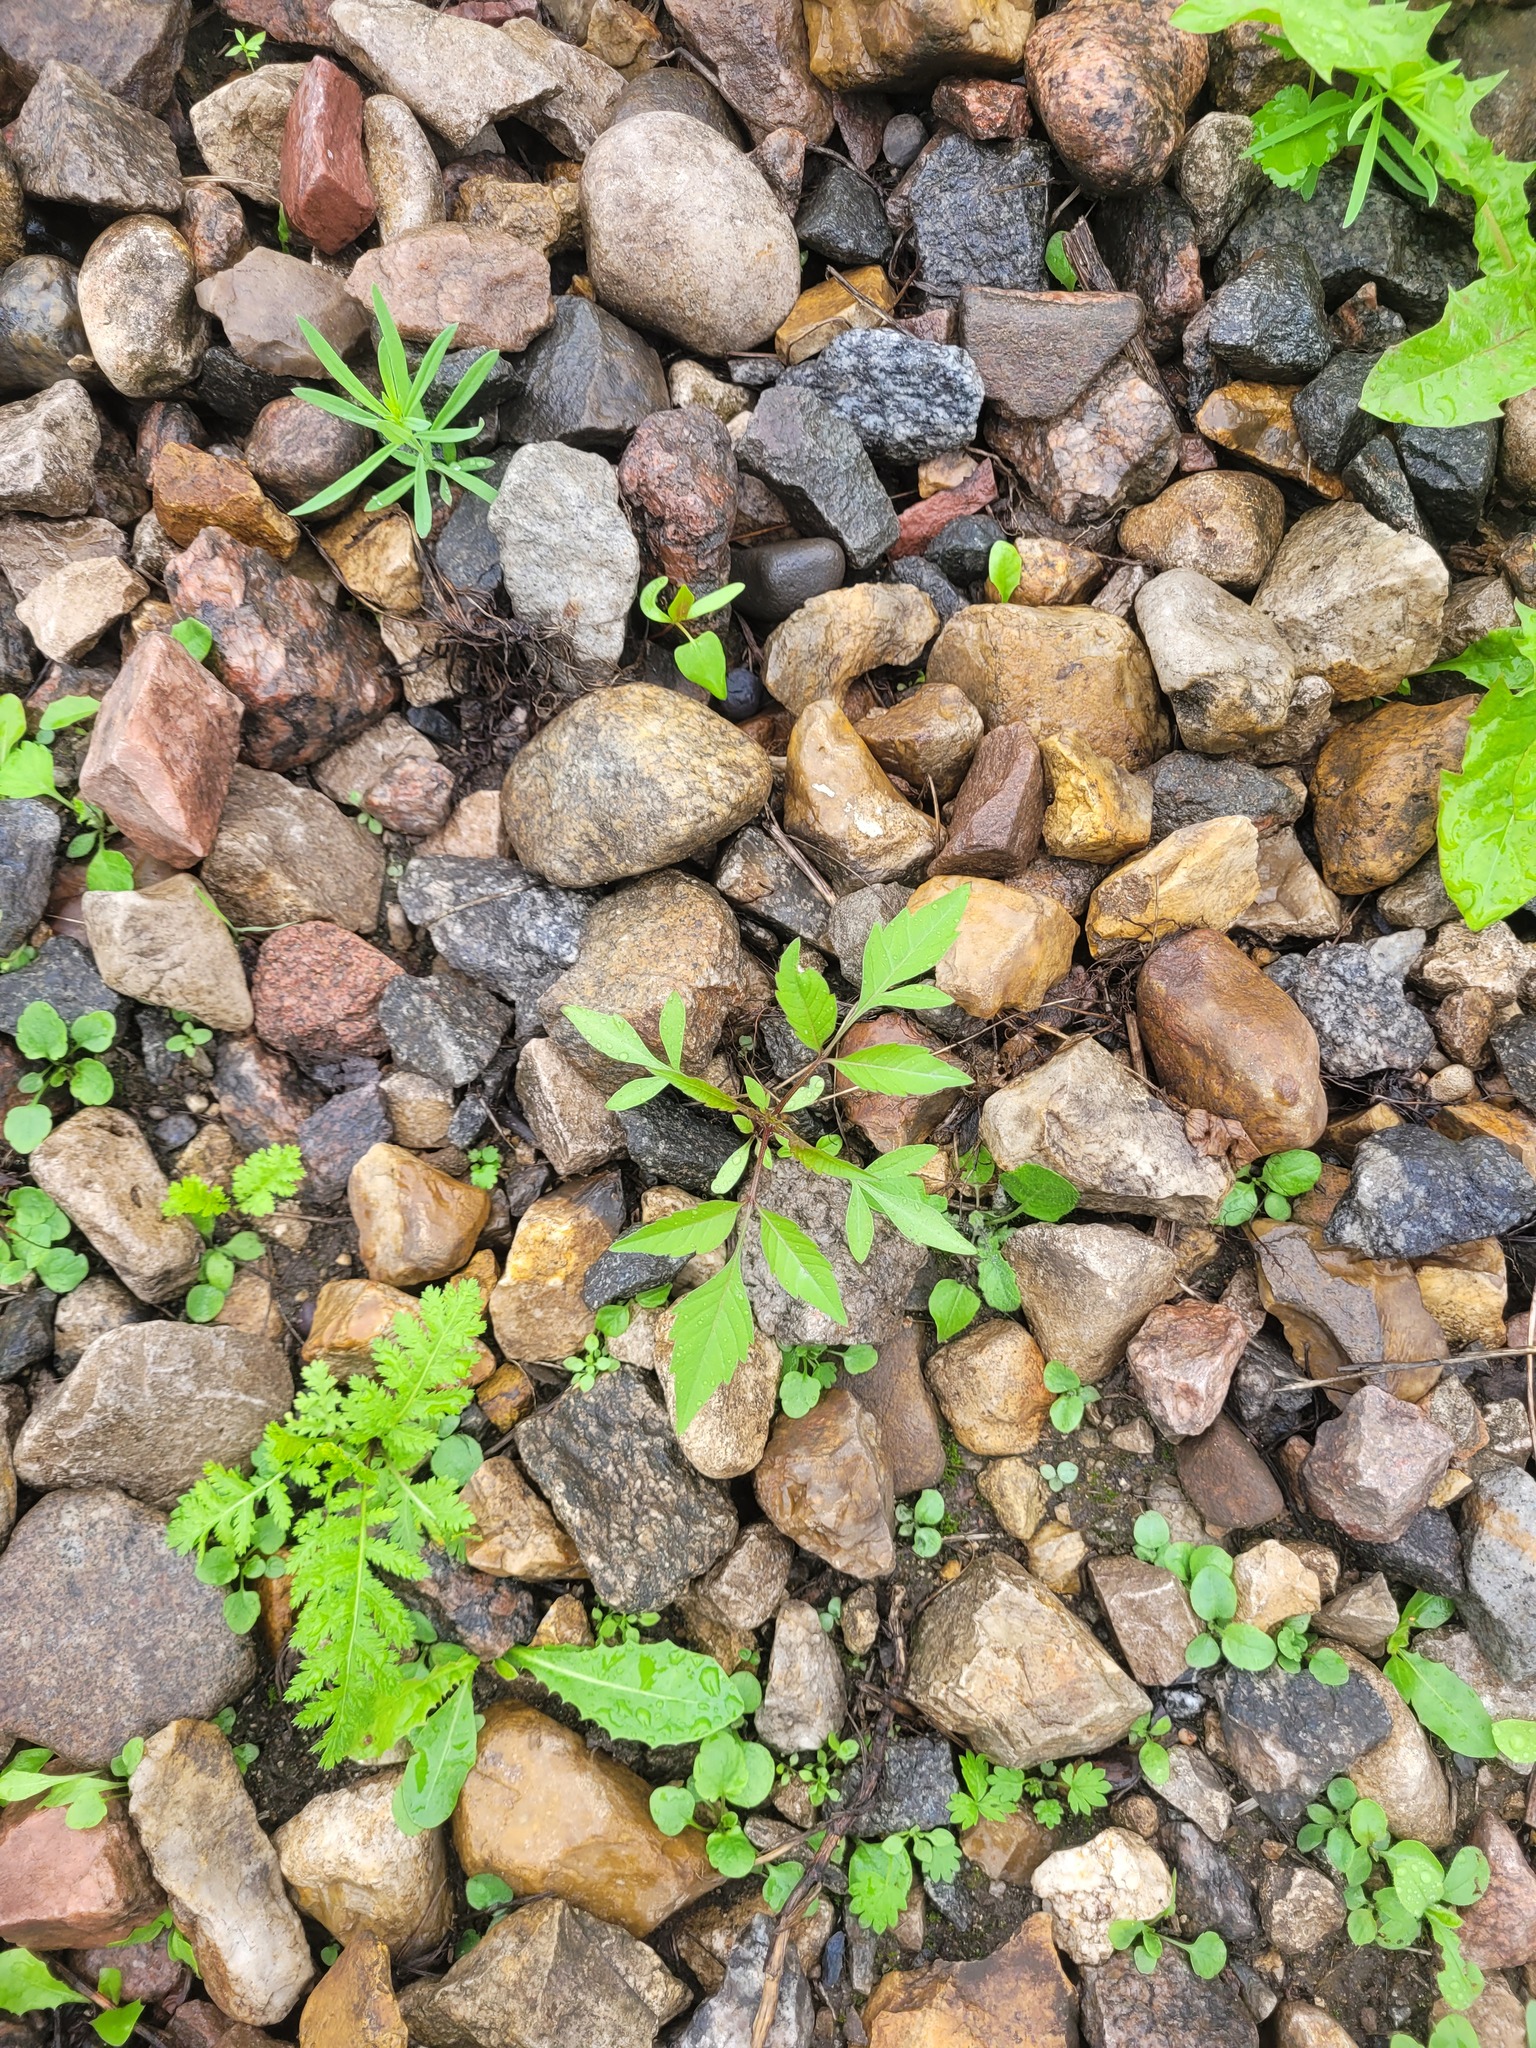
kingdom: Plantae
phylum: Tracheophyta
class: Magnoliopsida
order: Asterales
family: Asteraceae
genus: Bidens
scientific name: Bidens frondosa
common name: Beggarticks
